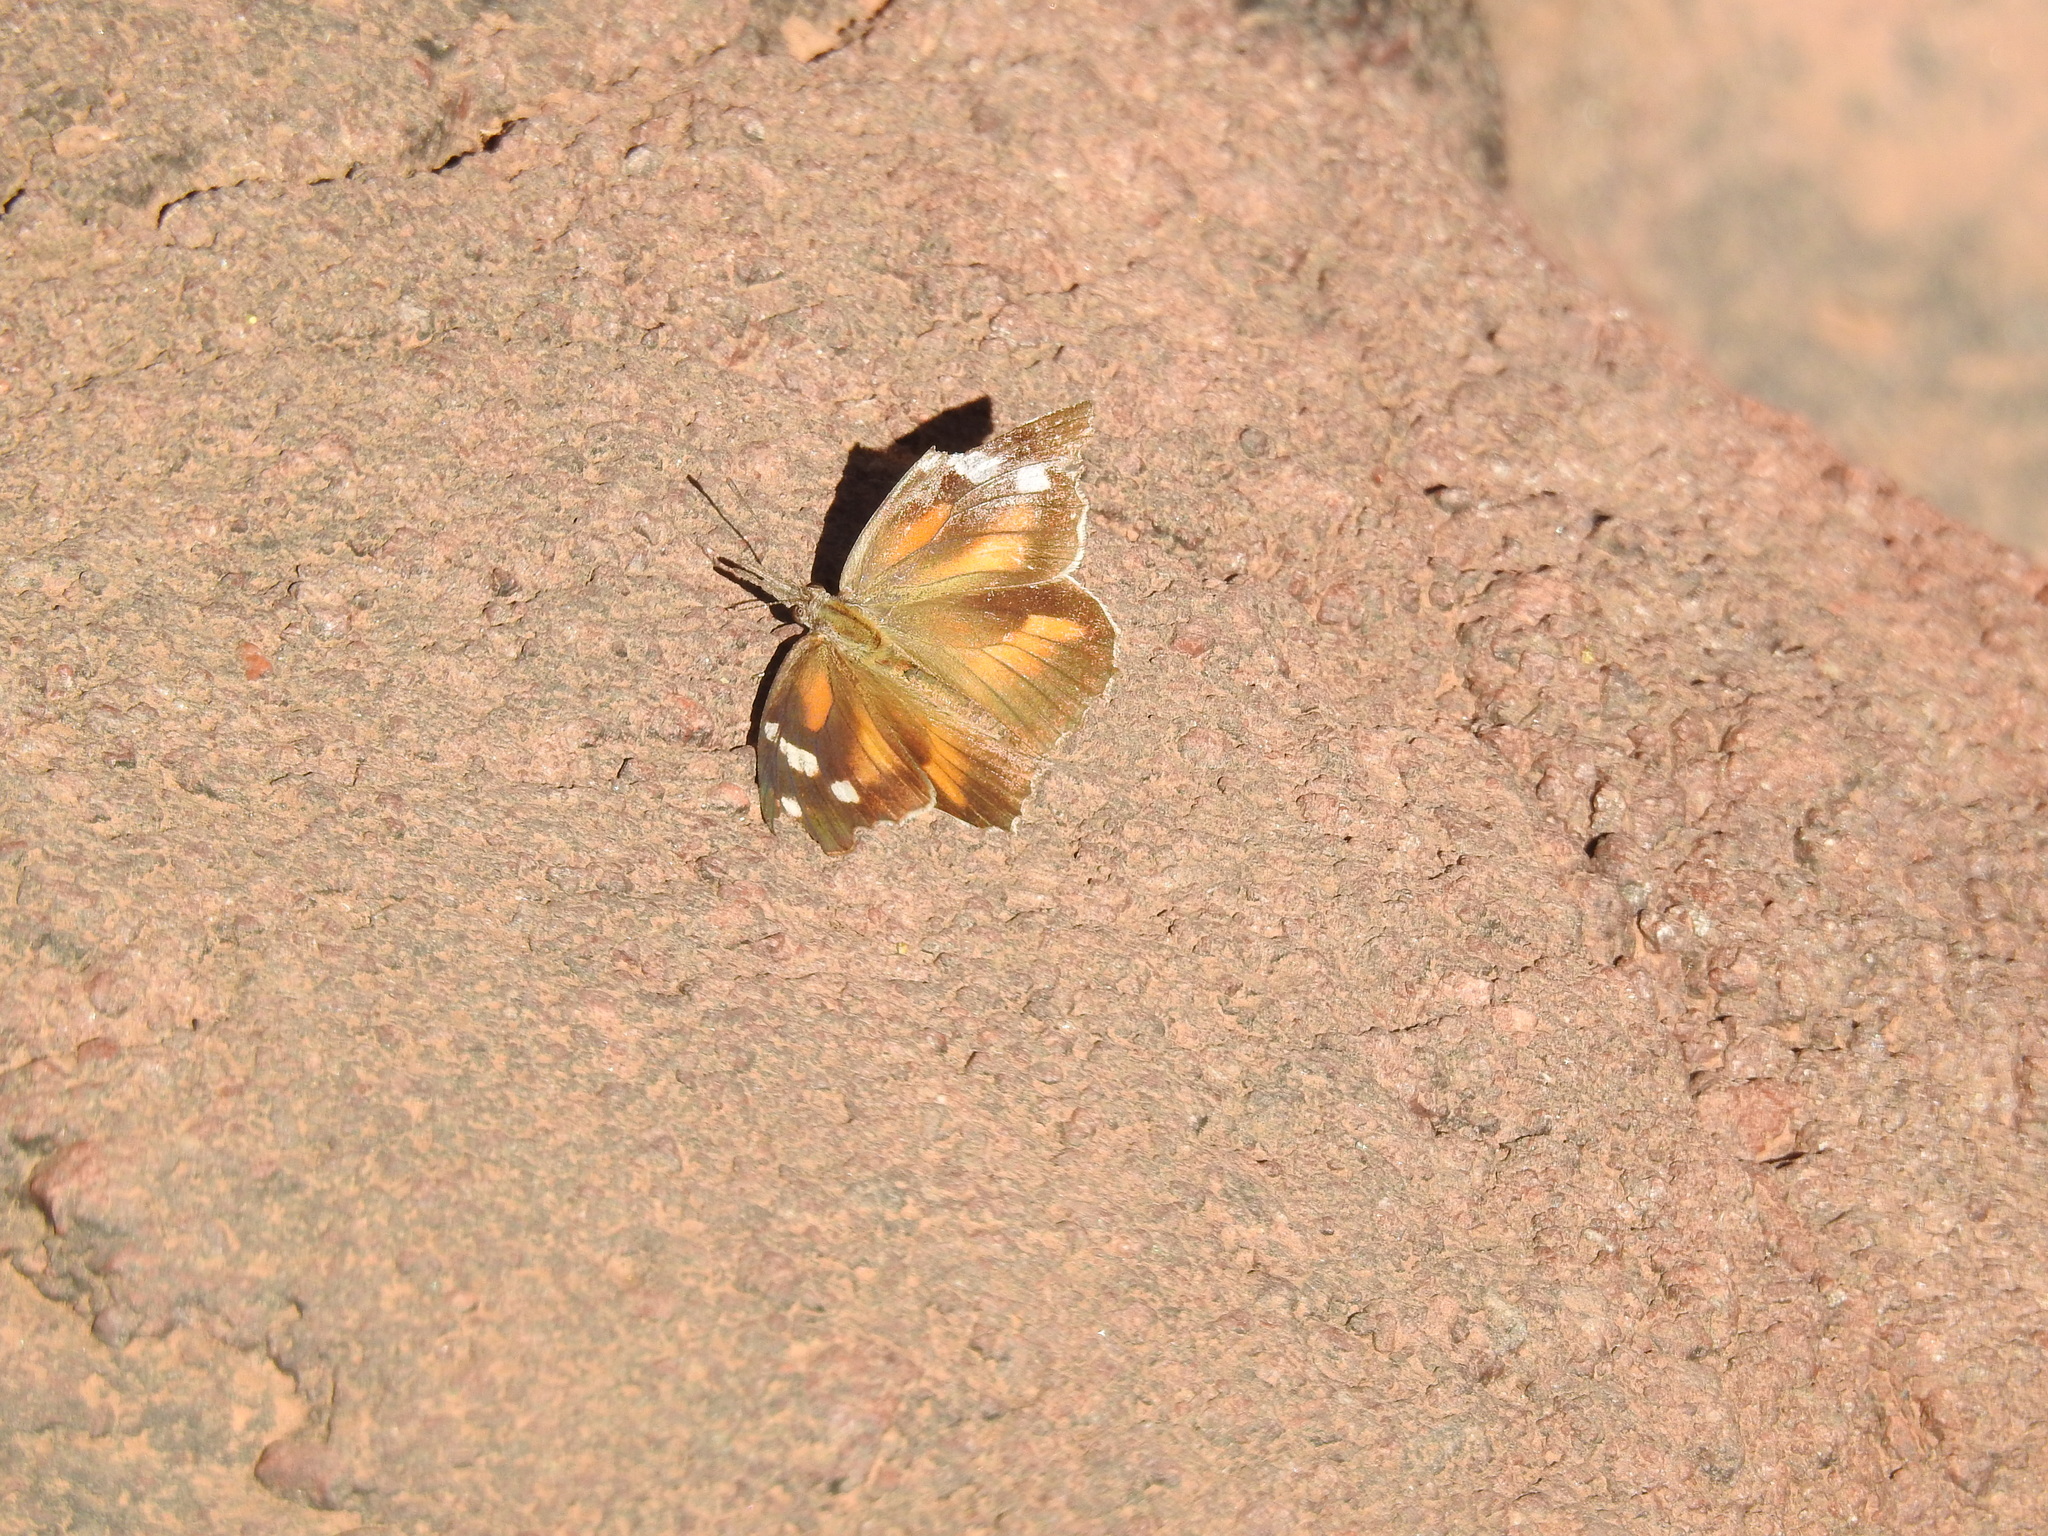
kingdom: Animalia
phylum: Arthropoda
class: Insecta
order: Lepidoptera
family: Nymphalidae
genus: Libytheana
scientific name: Libytheana carinenta
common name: American snout
